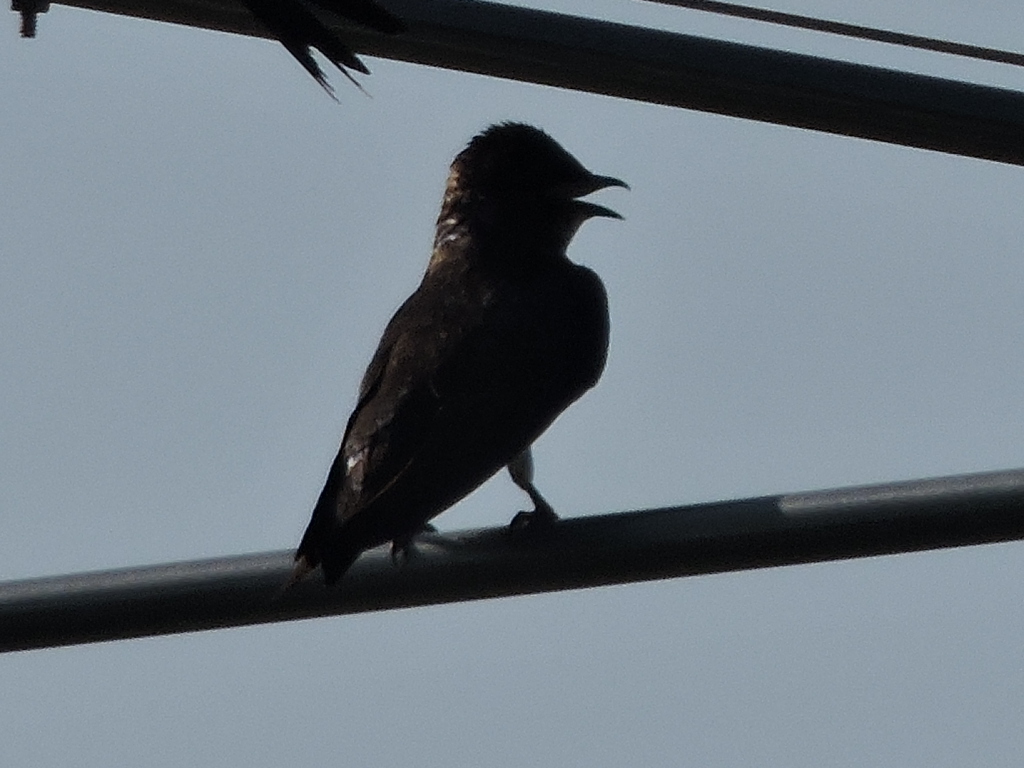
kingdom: Animalia
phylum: Chordata
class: Aves
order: Passeriformes
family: Hirundinidae
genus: Progne
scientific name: Progne subis
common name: Purple martin
